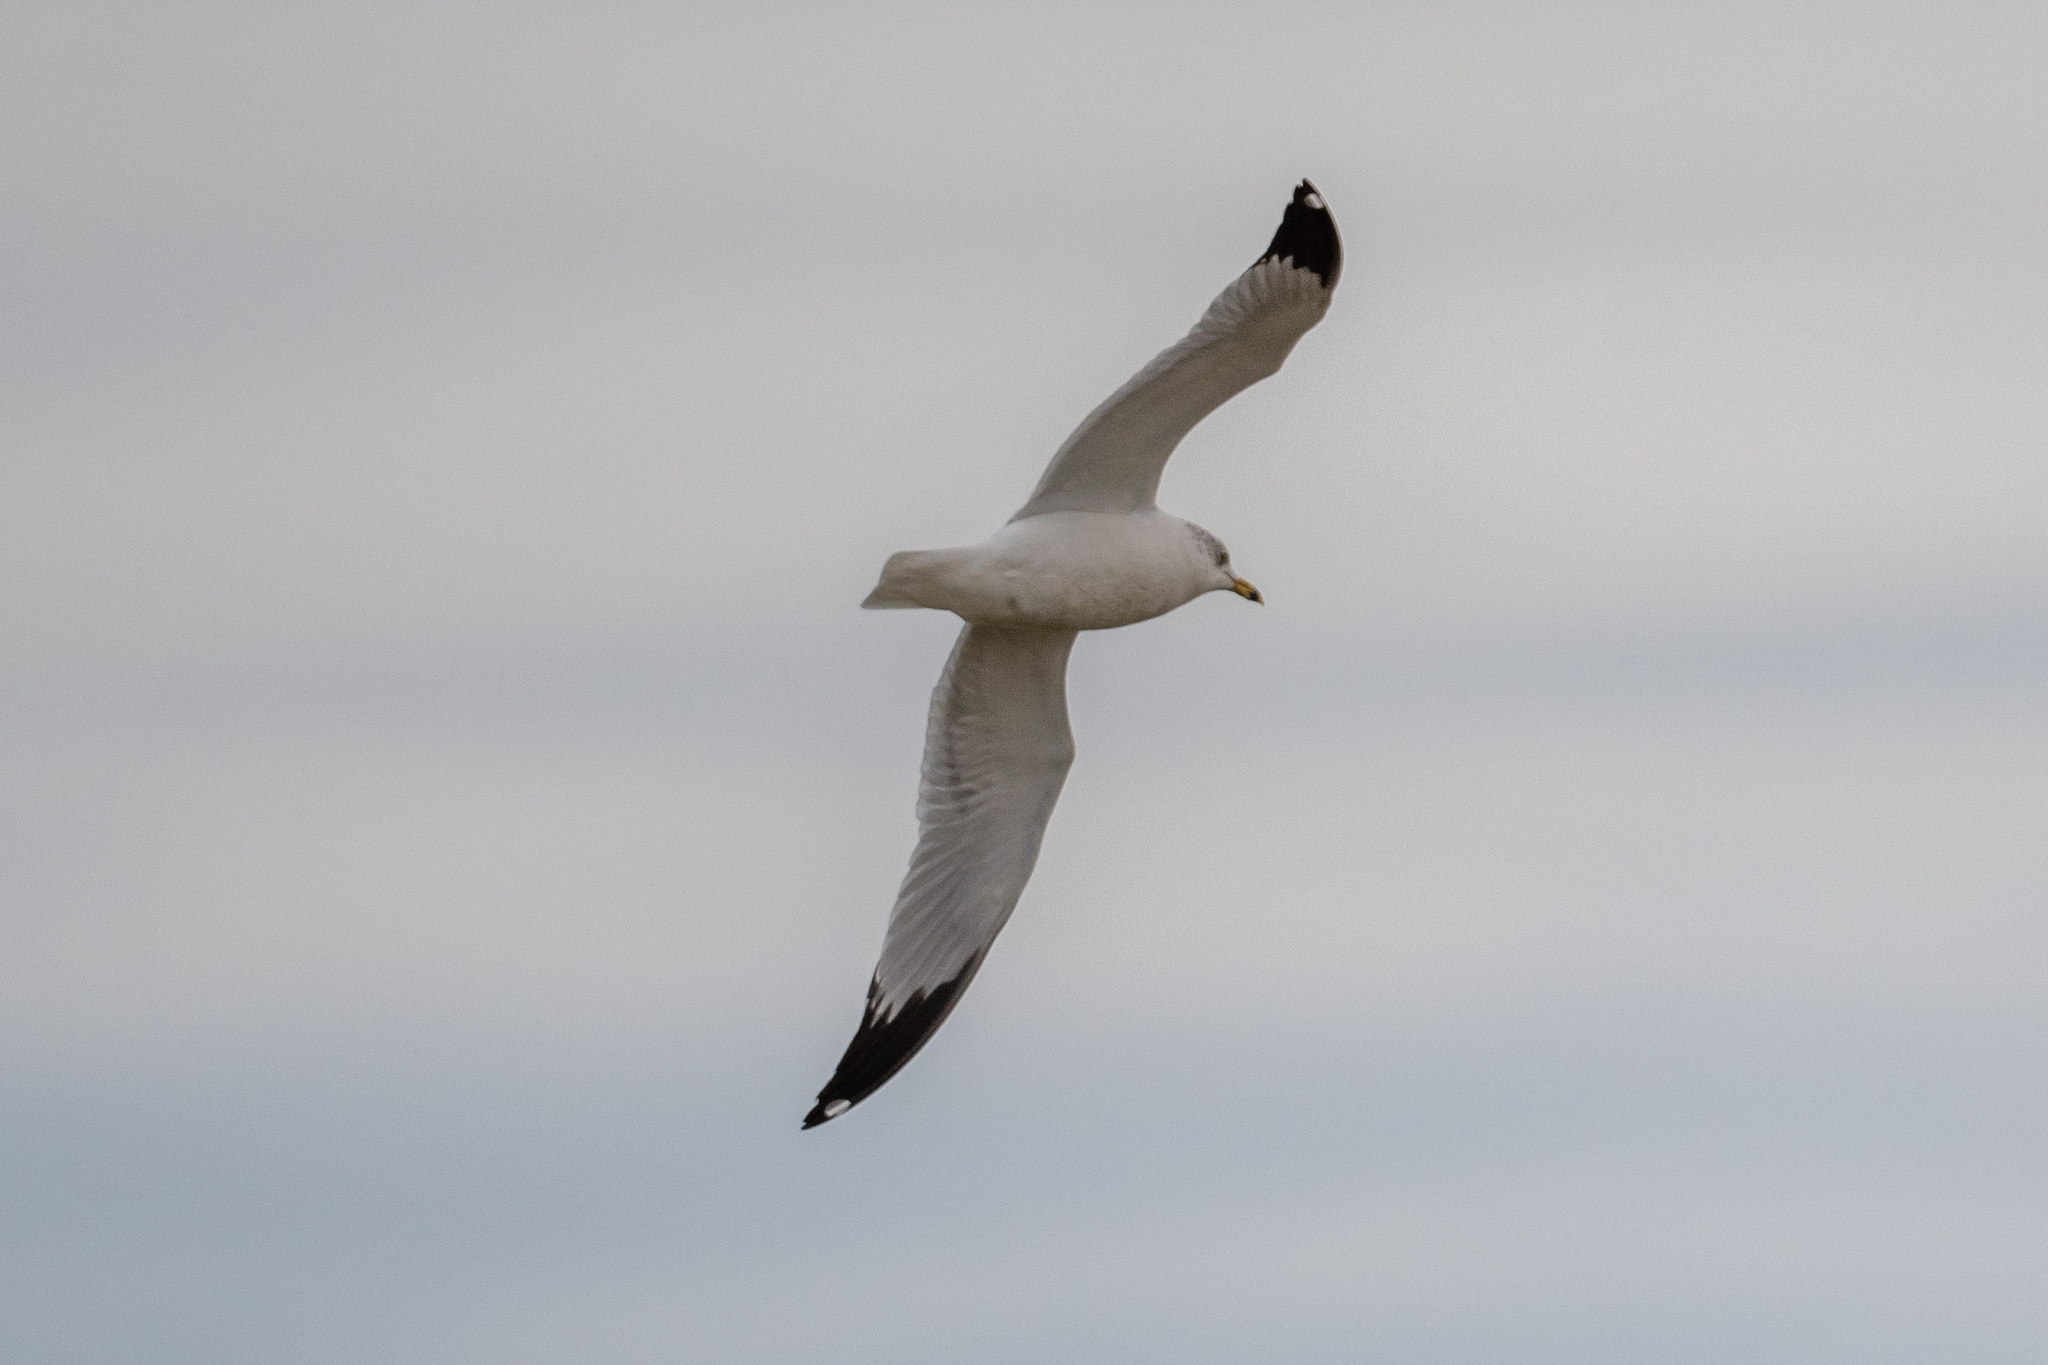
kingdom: Animalia
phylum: Chordata
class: Aves
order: Charadriiformes
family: Laridae
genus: Larus
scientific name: Larus delawarensis
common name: Ring-billed gull
